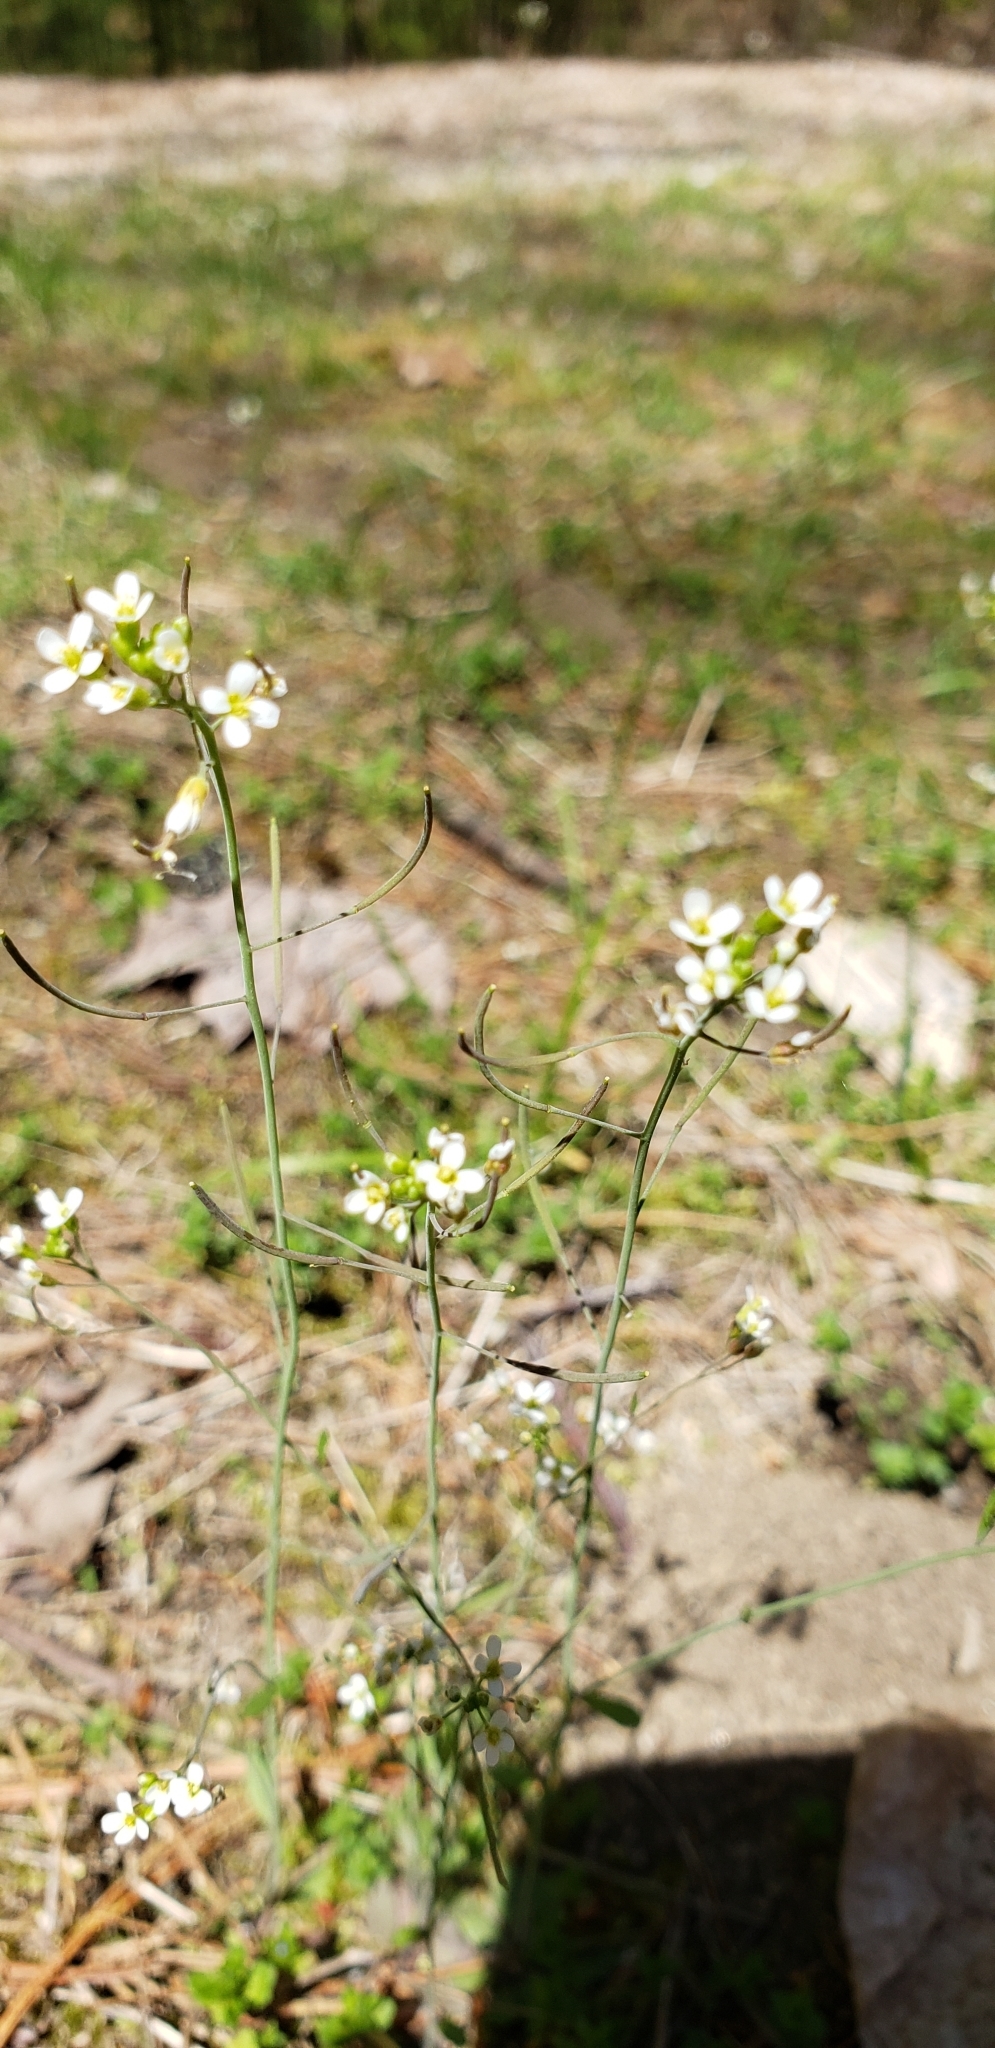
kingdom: Plantae
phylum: Tracheophyta
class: Magnoliopsida
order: Brassicales
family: Brassicaceae
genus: Arabidopsis
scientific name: Arabidopsis thaliana
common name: Thale cress
